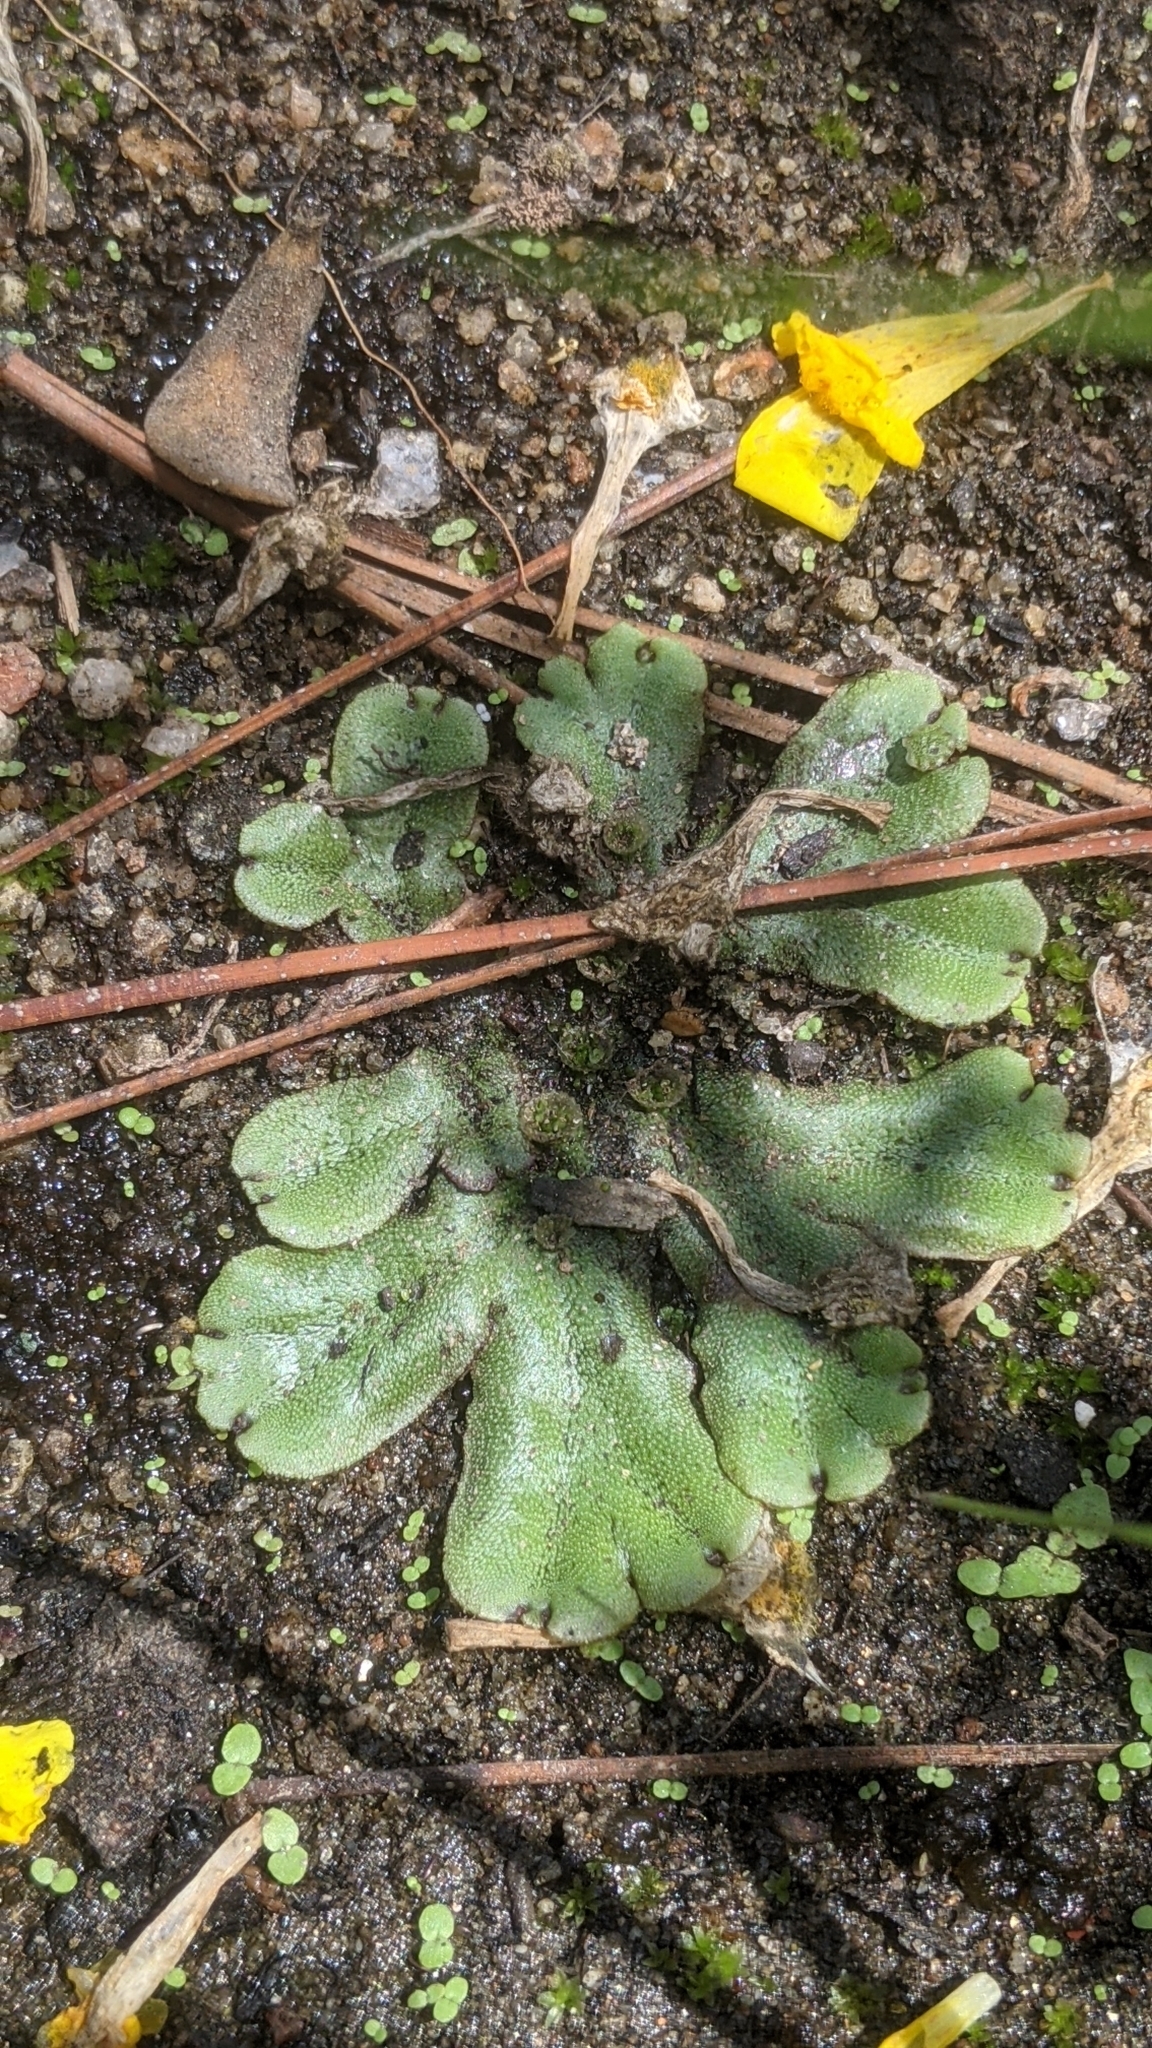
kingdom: Plantae
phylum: Marchantiophyta
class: Marchantiopsida
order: Marchantiales
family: Marchantiaceae
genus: Marchantia
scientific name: Marchantia polymorpha
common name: Common liverwort
